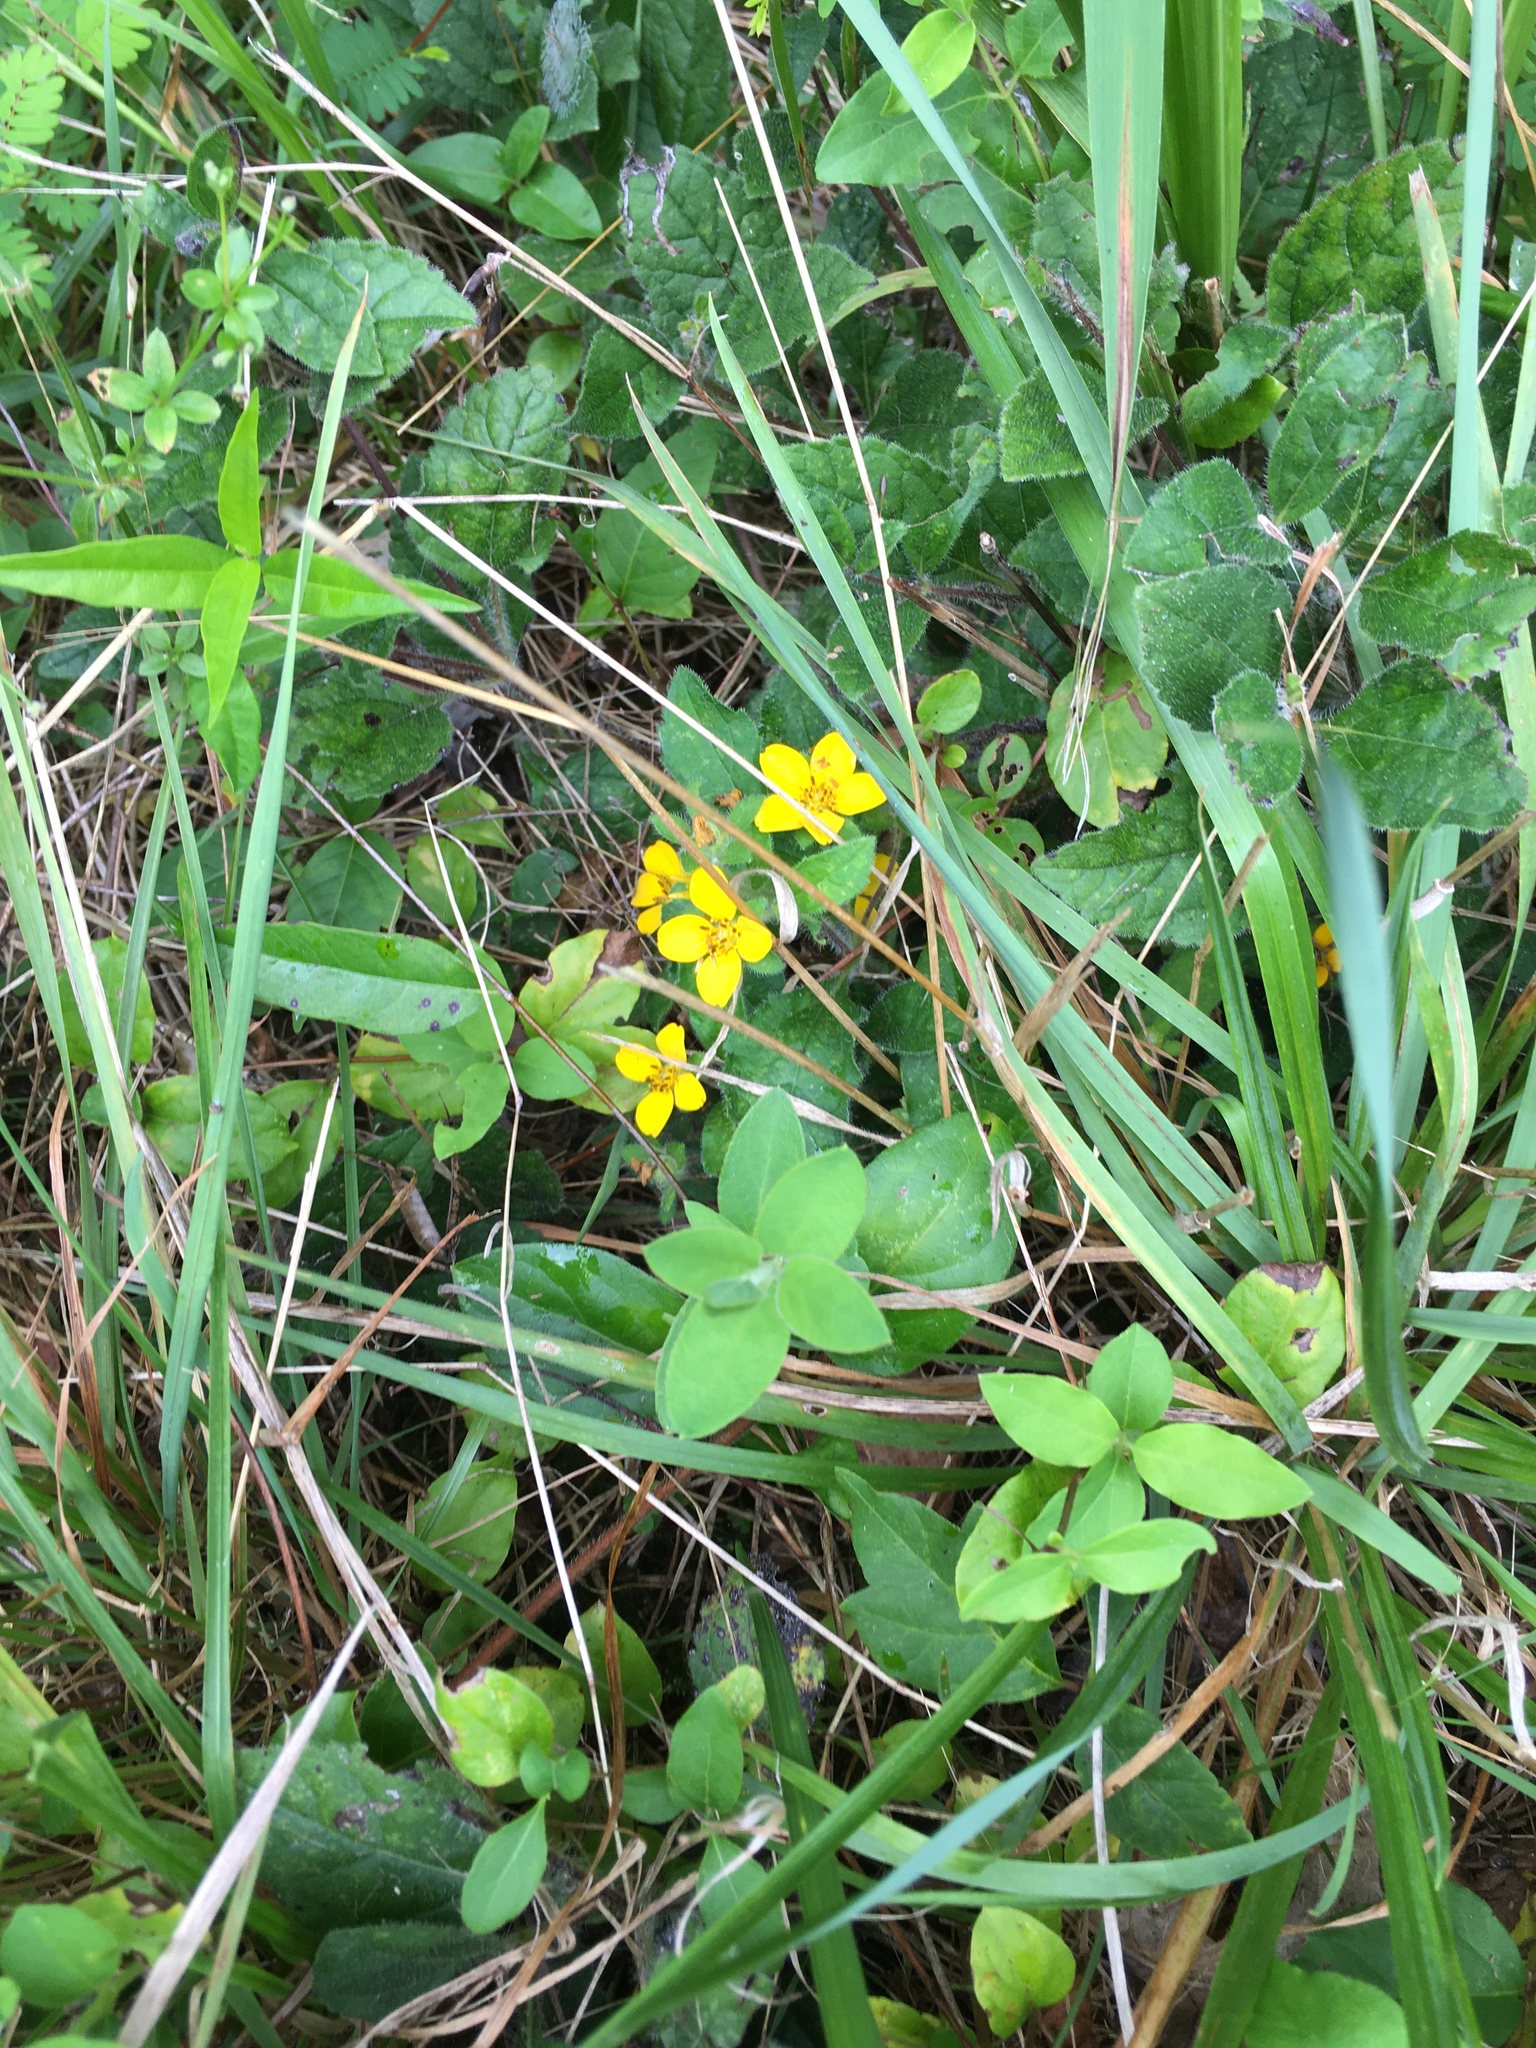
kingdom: Plantae
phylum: Tracheophyta
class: Magnoliopsida
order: Asterales
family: Asteraceae
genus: Chrysogonum
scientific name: Chrysogonum virginianum
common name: Golden-knee
